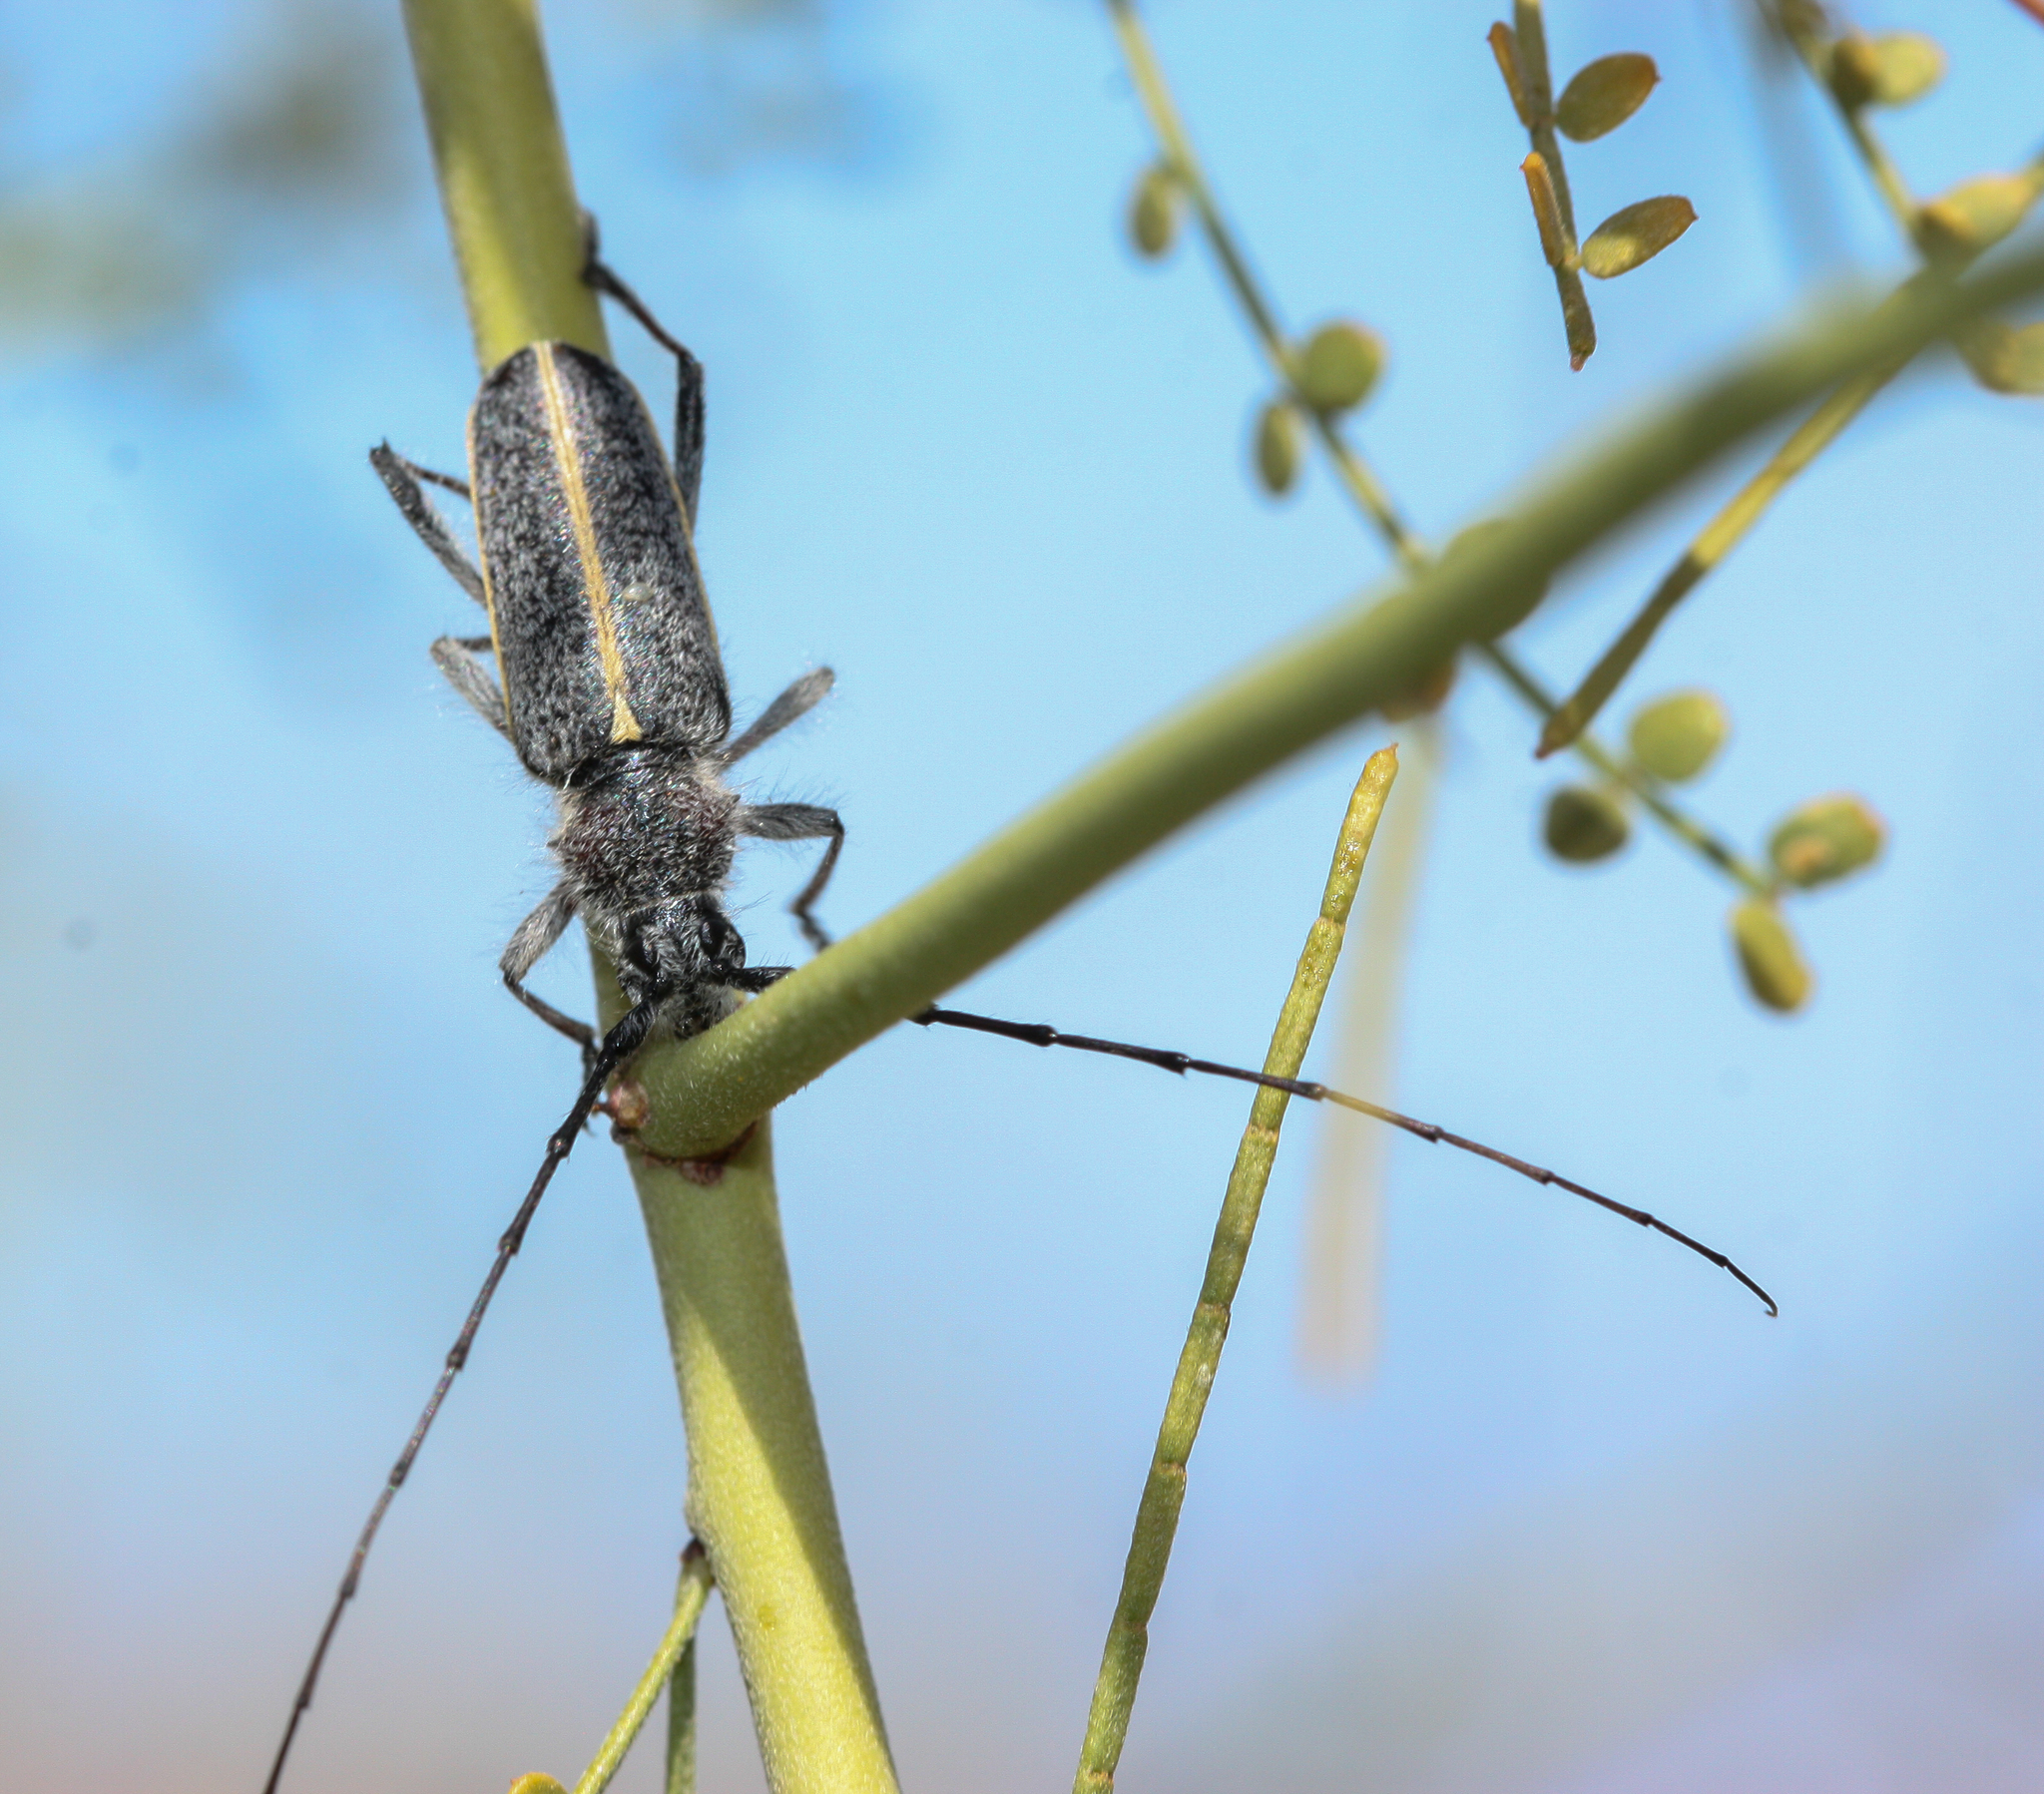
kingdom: Animalia
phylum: Arthropoda
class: Insecta
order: Coleoptera
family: Cerambycidae
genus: Schizax
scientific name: Schizax senex
